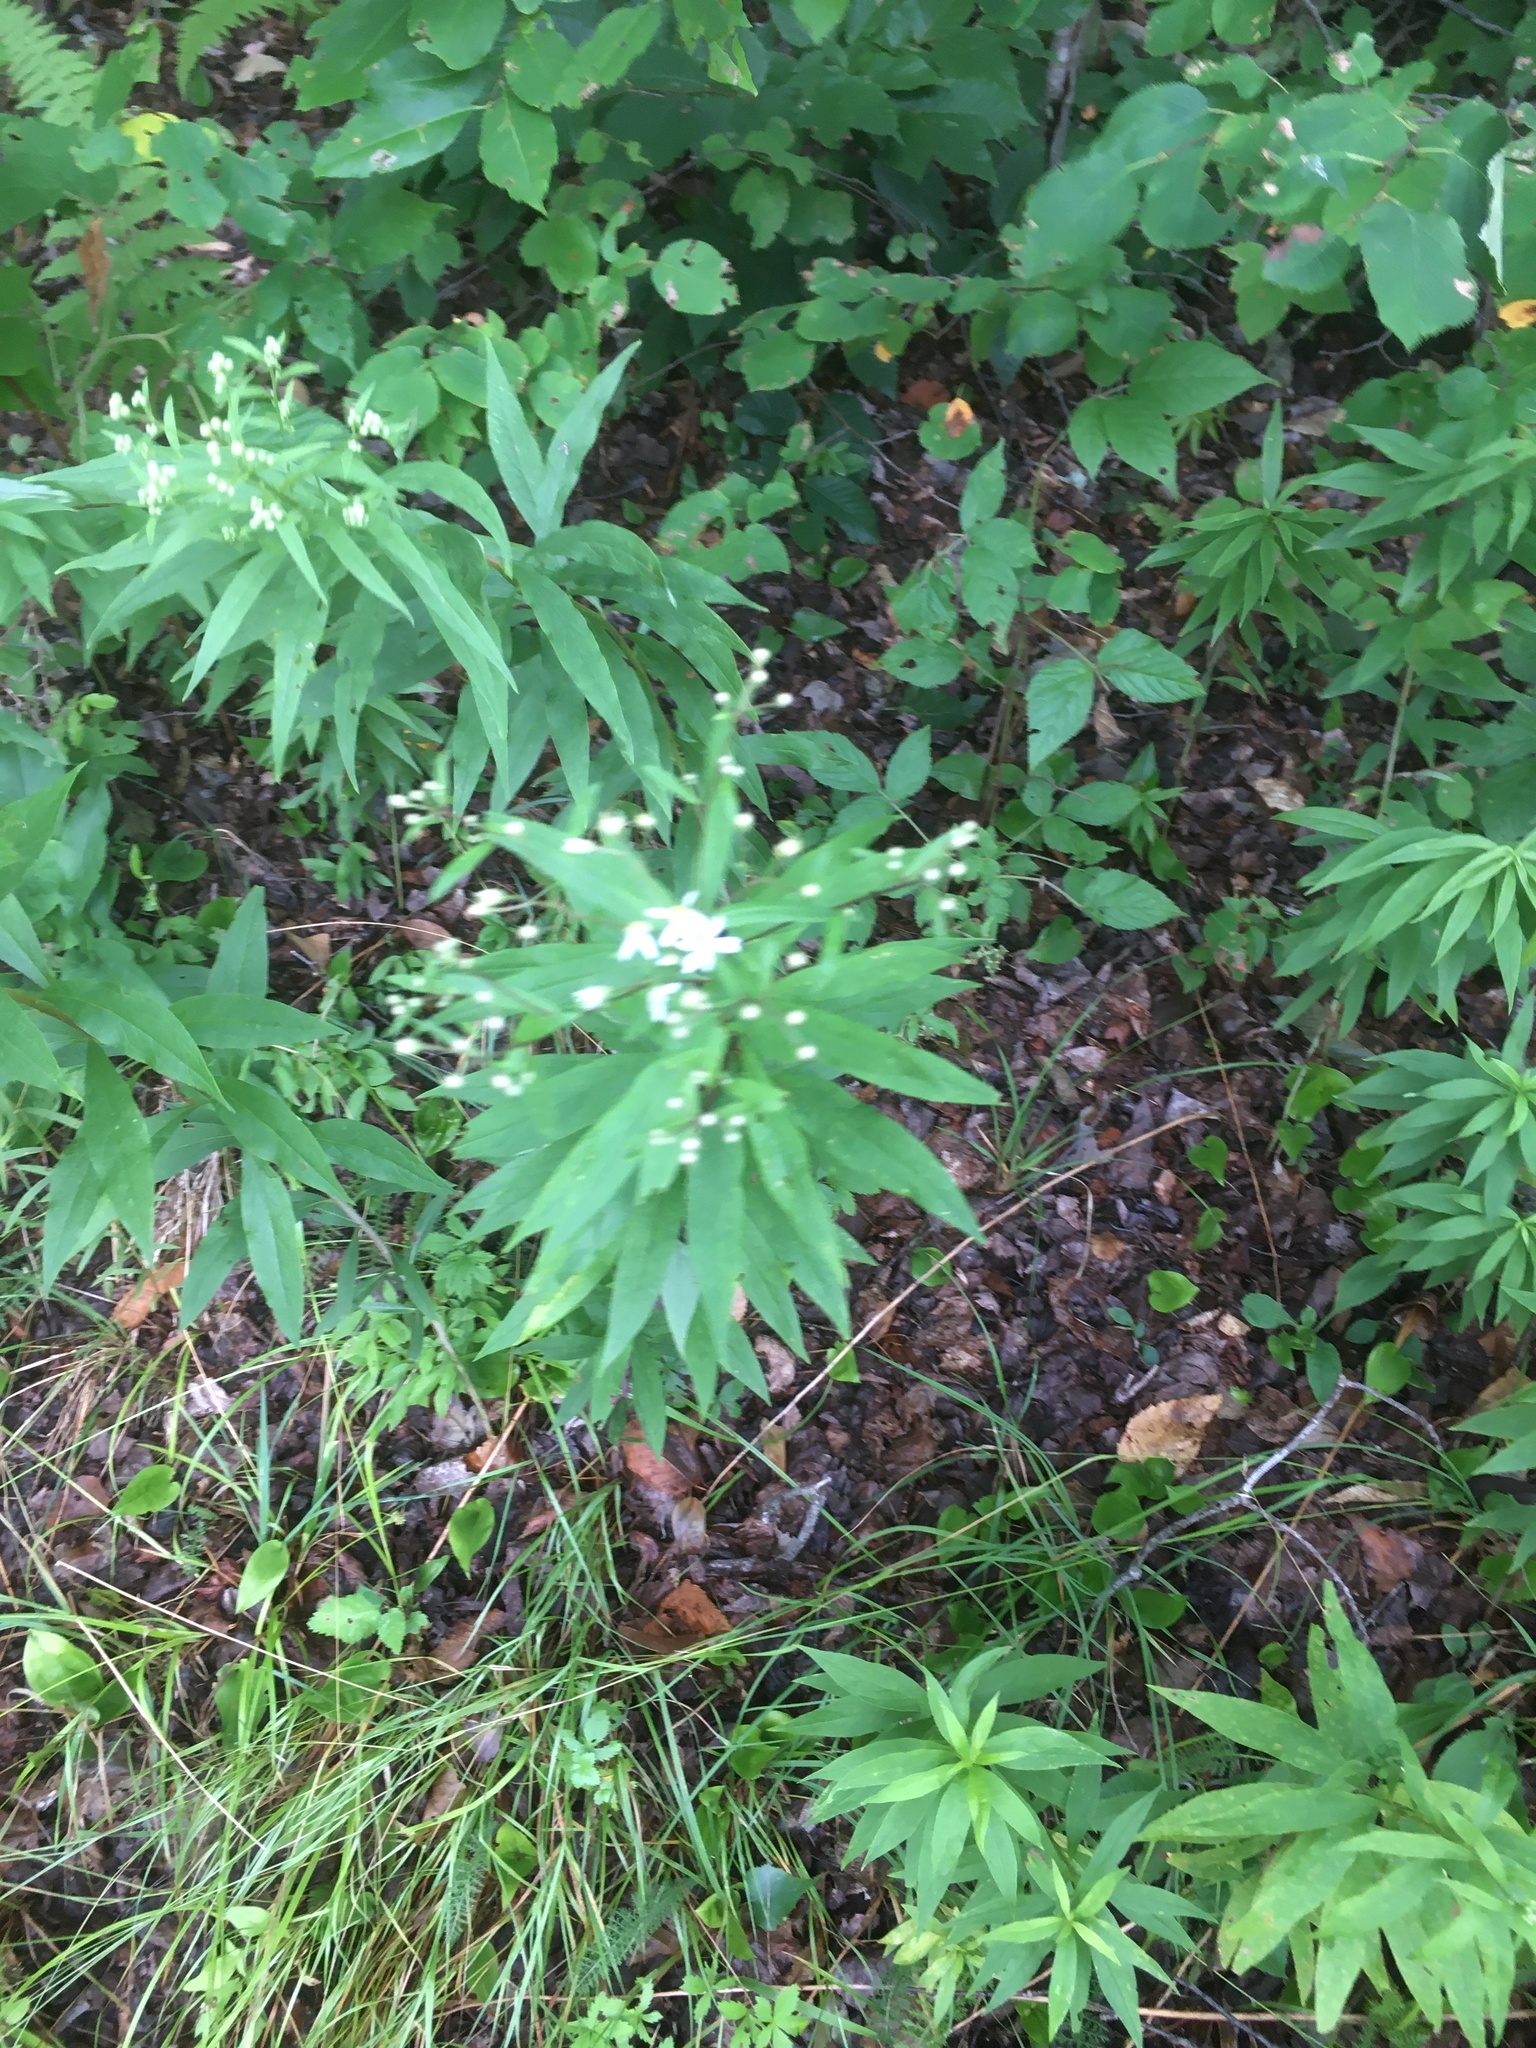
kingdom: Plantae
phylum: Tracheophyta
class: Magnoliopsida
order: Asterales
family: Asteraceae
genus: Doellingeria
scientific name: Doellingeria umbellata
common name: Flat-top white aster
